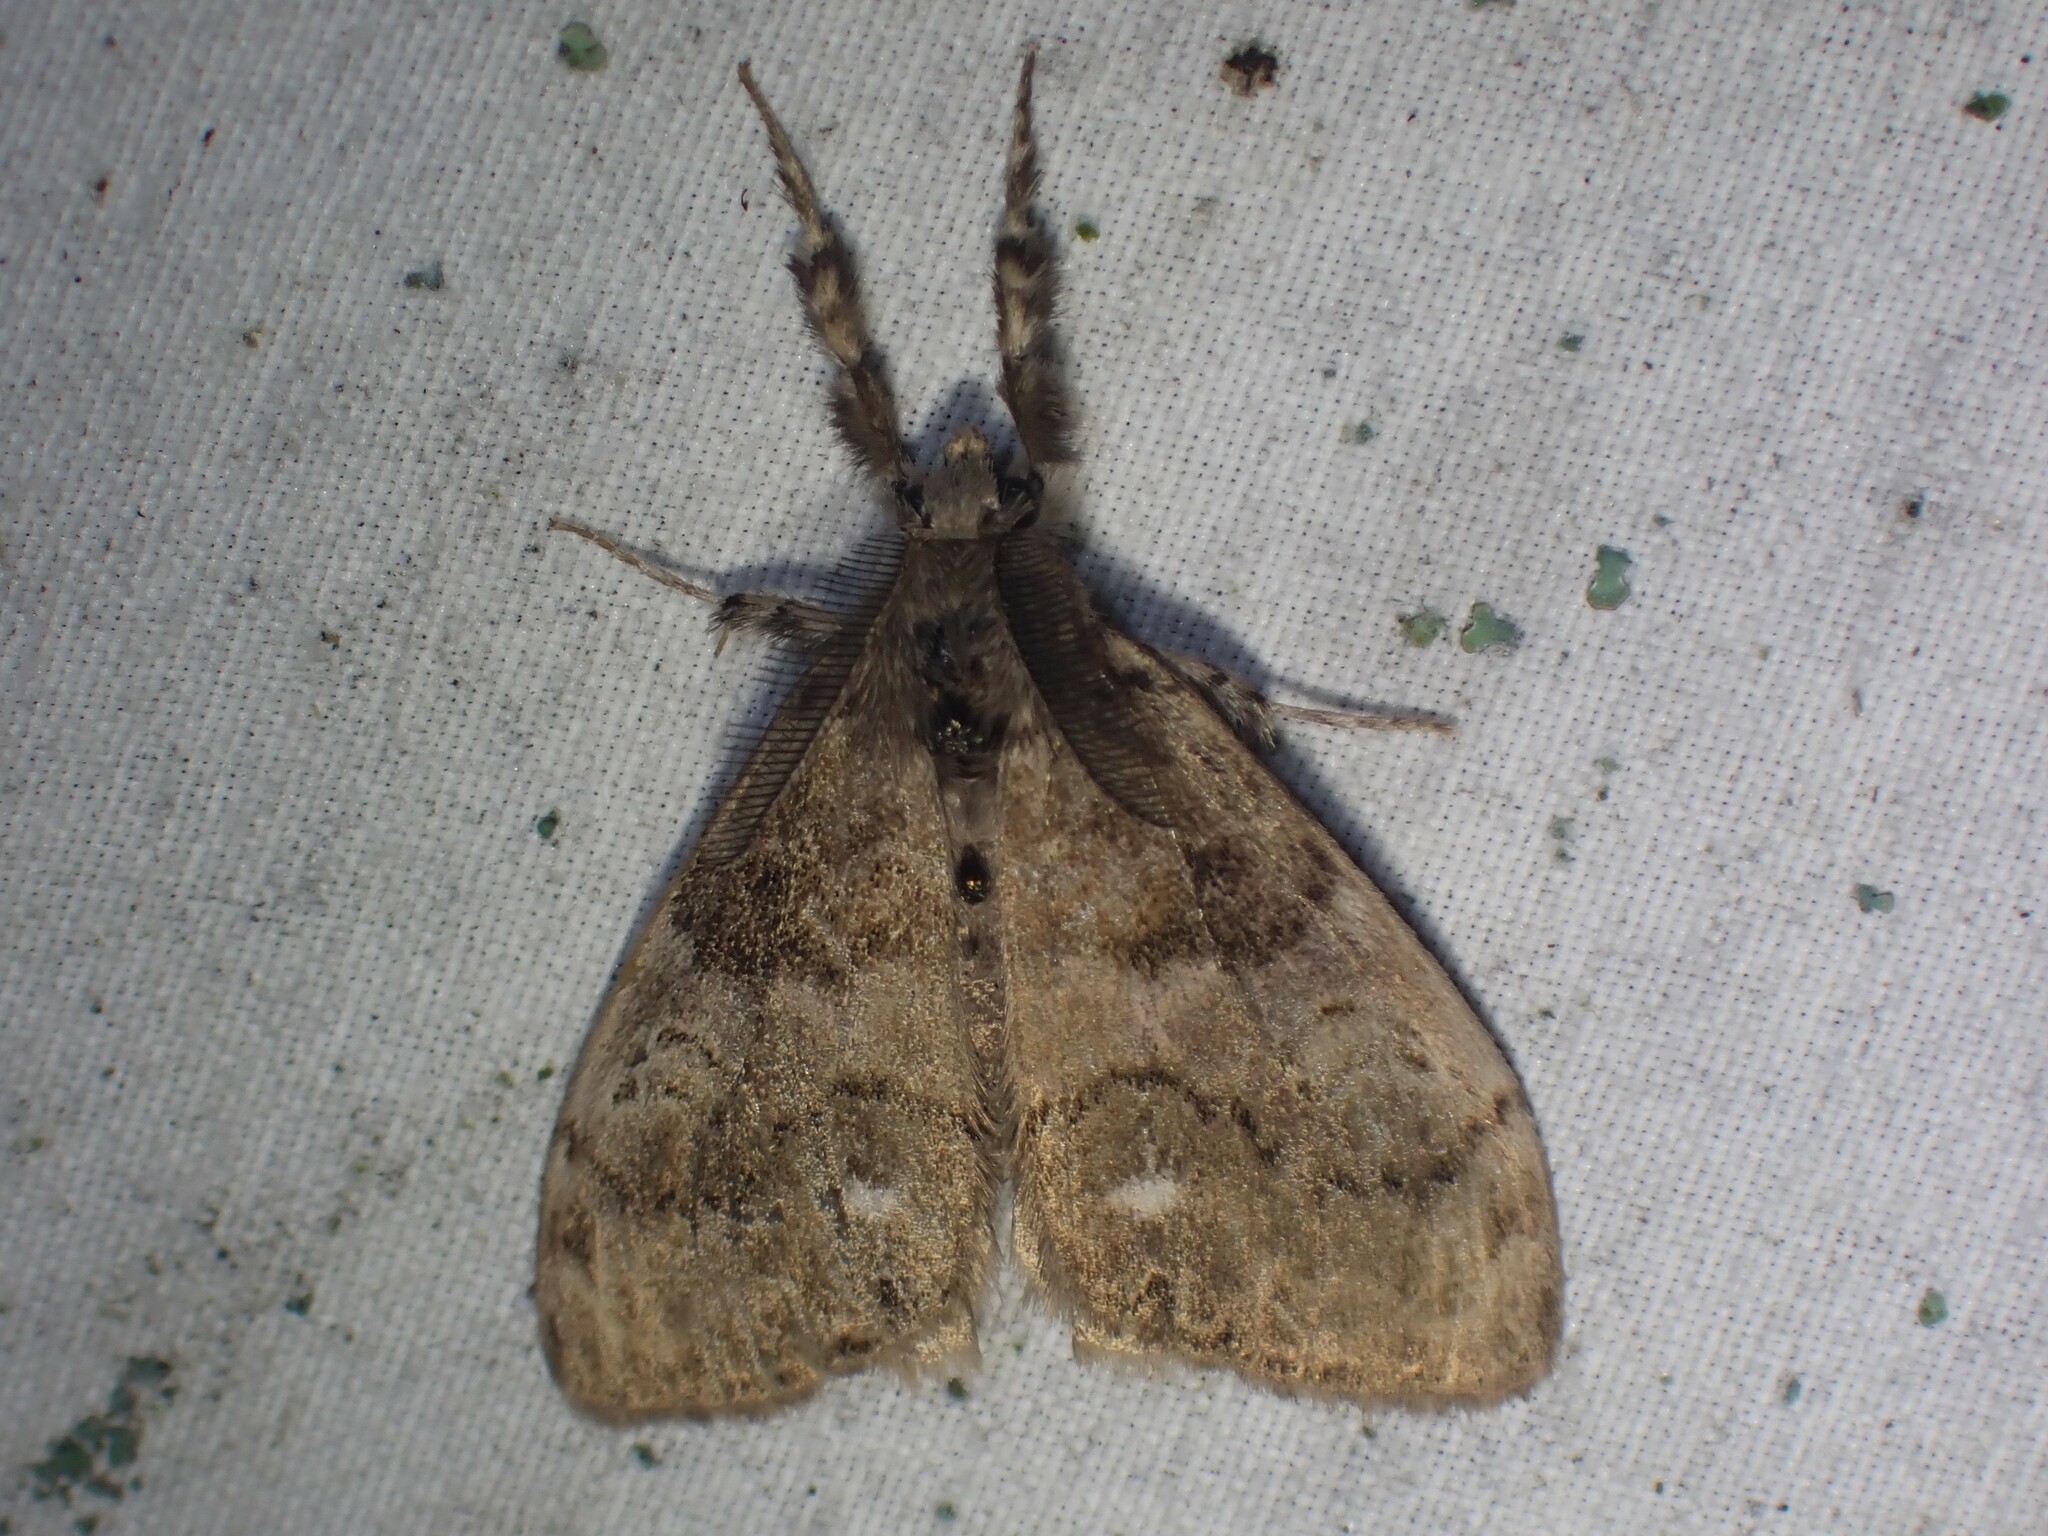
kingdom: Animalia
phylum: Arthropoda
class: Insecta
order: Lepidoptera
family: Erebidae
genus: Orgyia
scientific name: Orgyia leucostigma
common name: White-marked tussock moth
